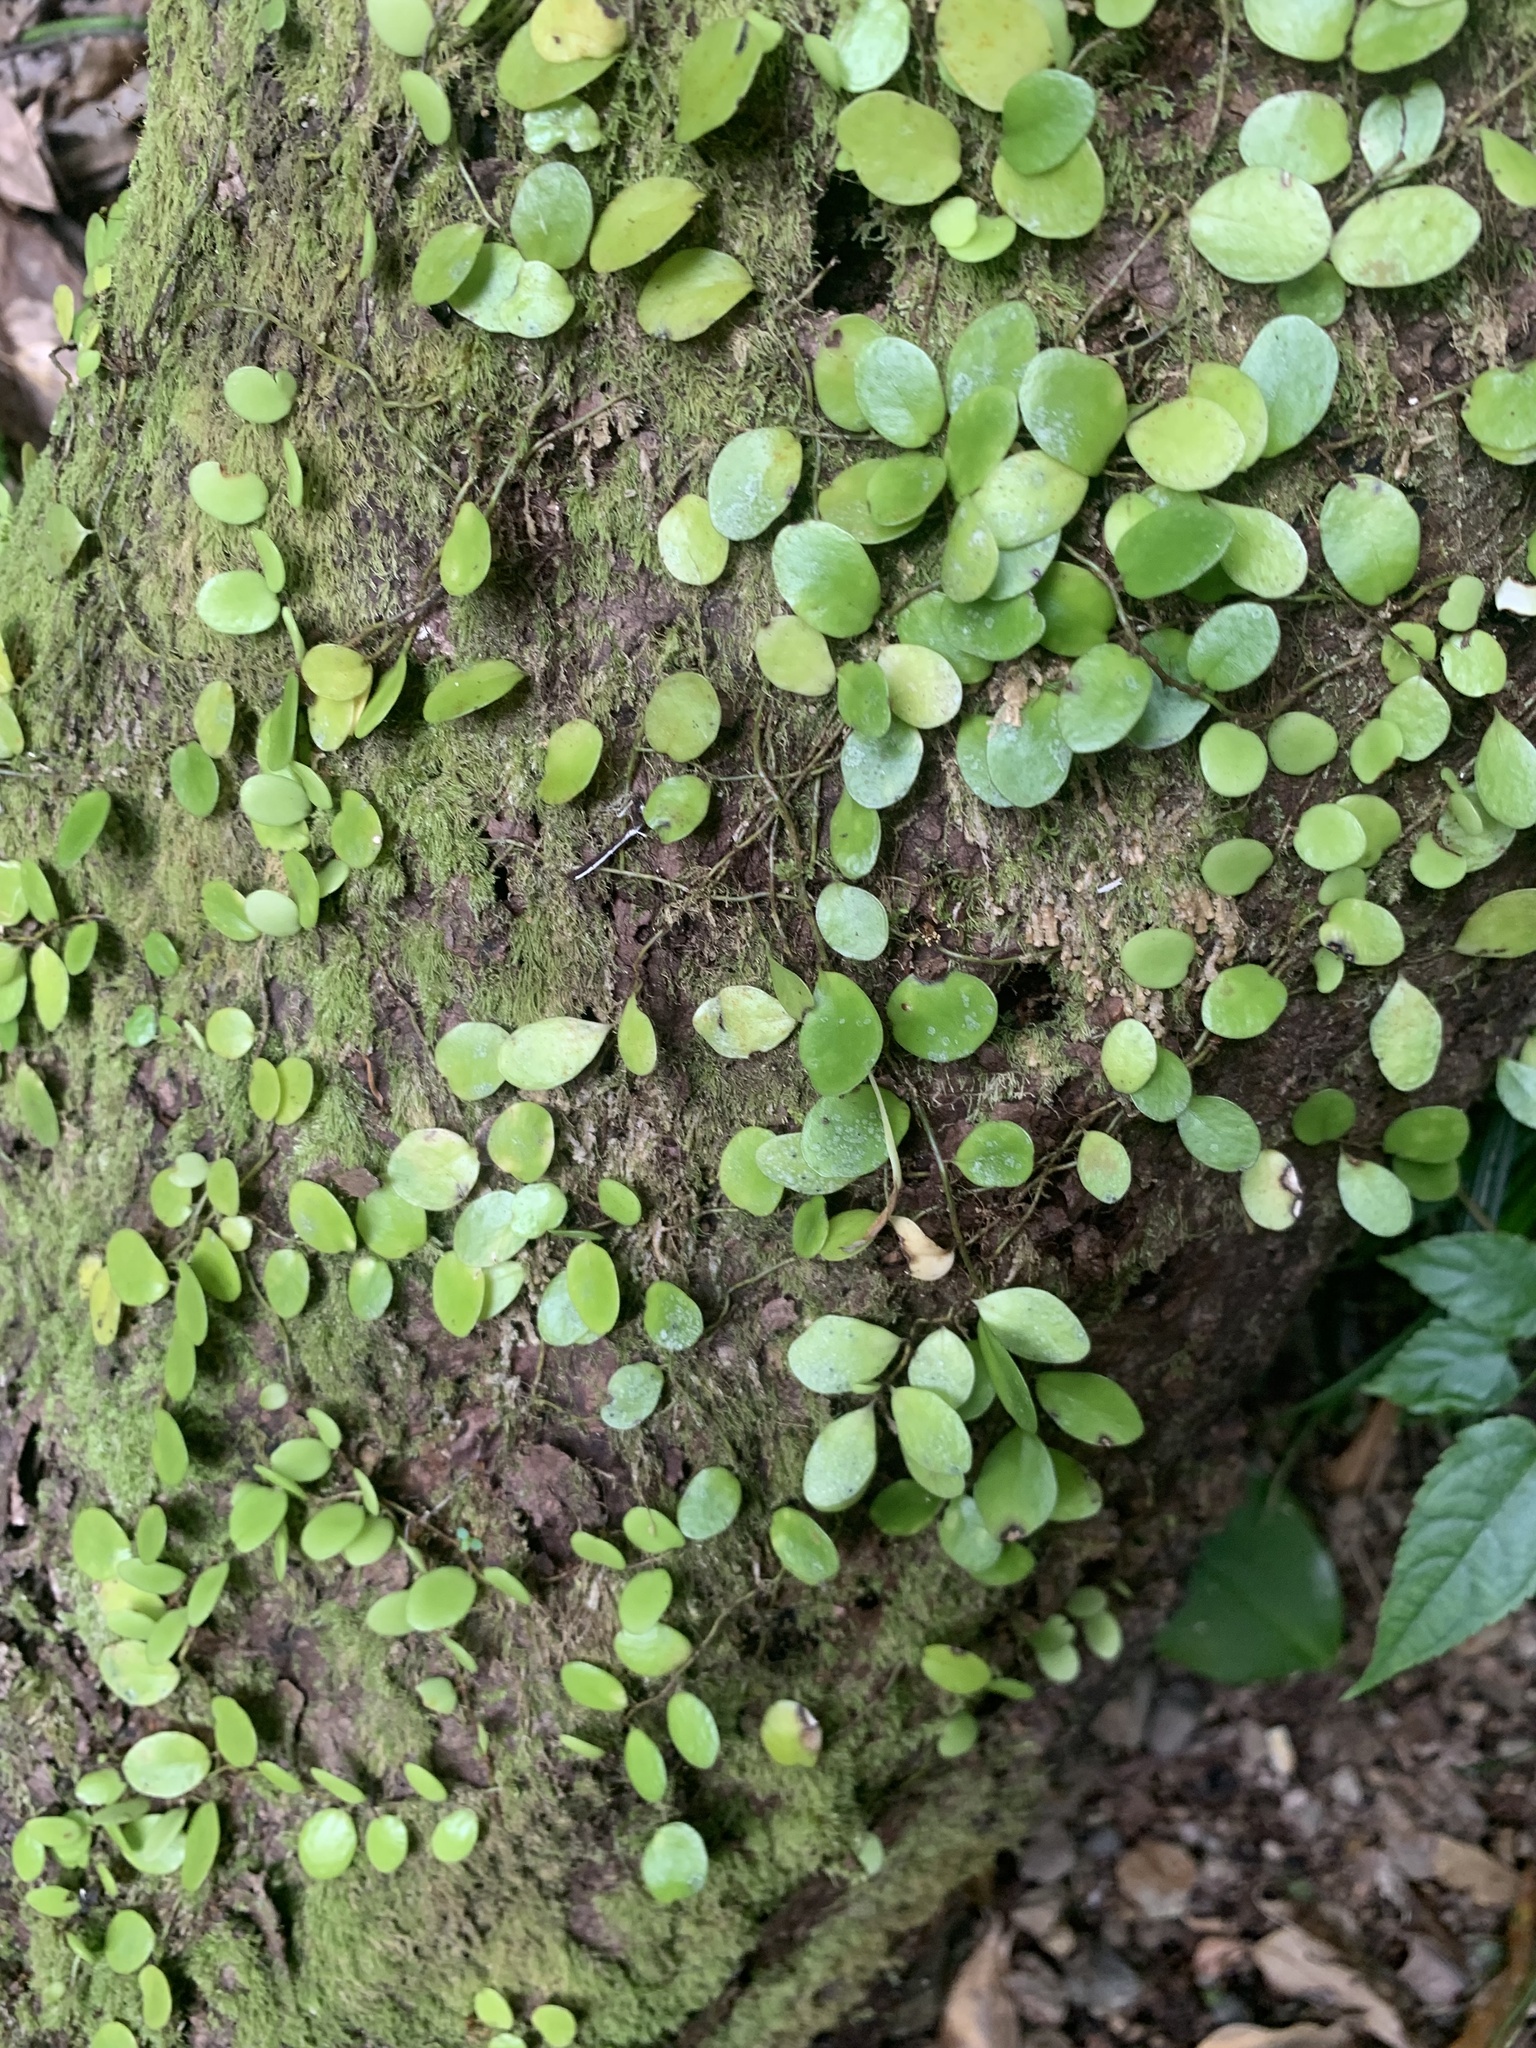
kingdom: Plantae
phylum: Tracheophyta
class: Polypodiopsida
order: Polypodiales
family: Polypodiaceae
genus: Lepisorus
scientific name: Lepisorus microphyllus
